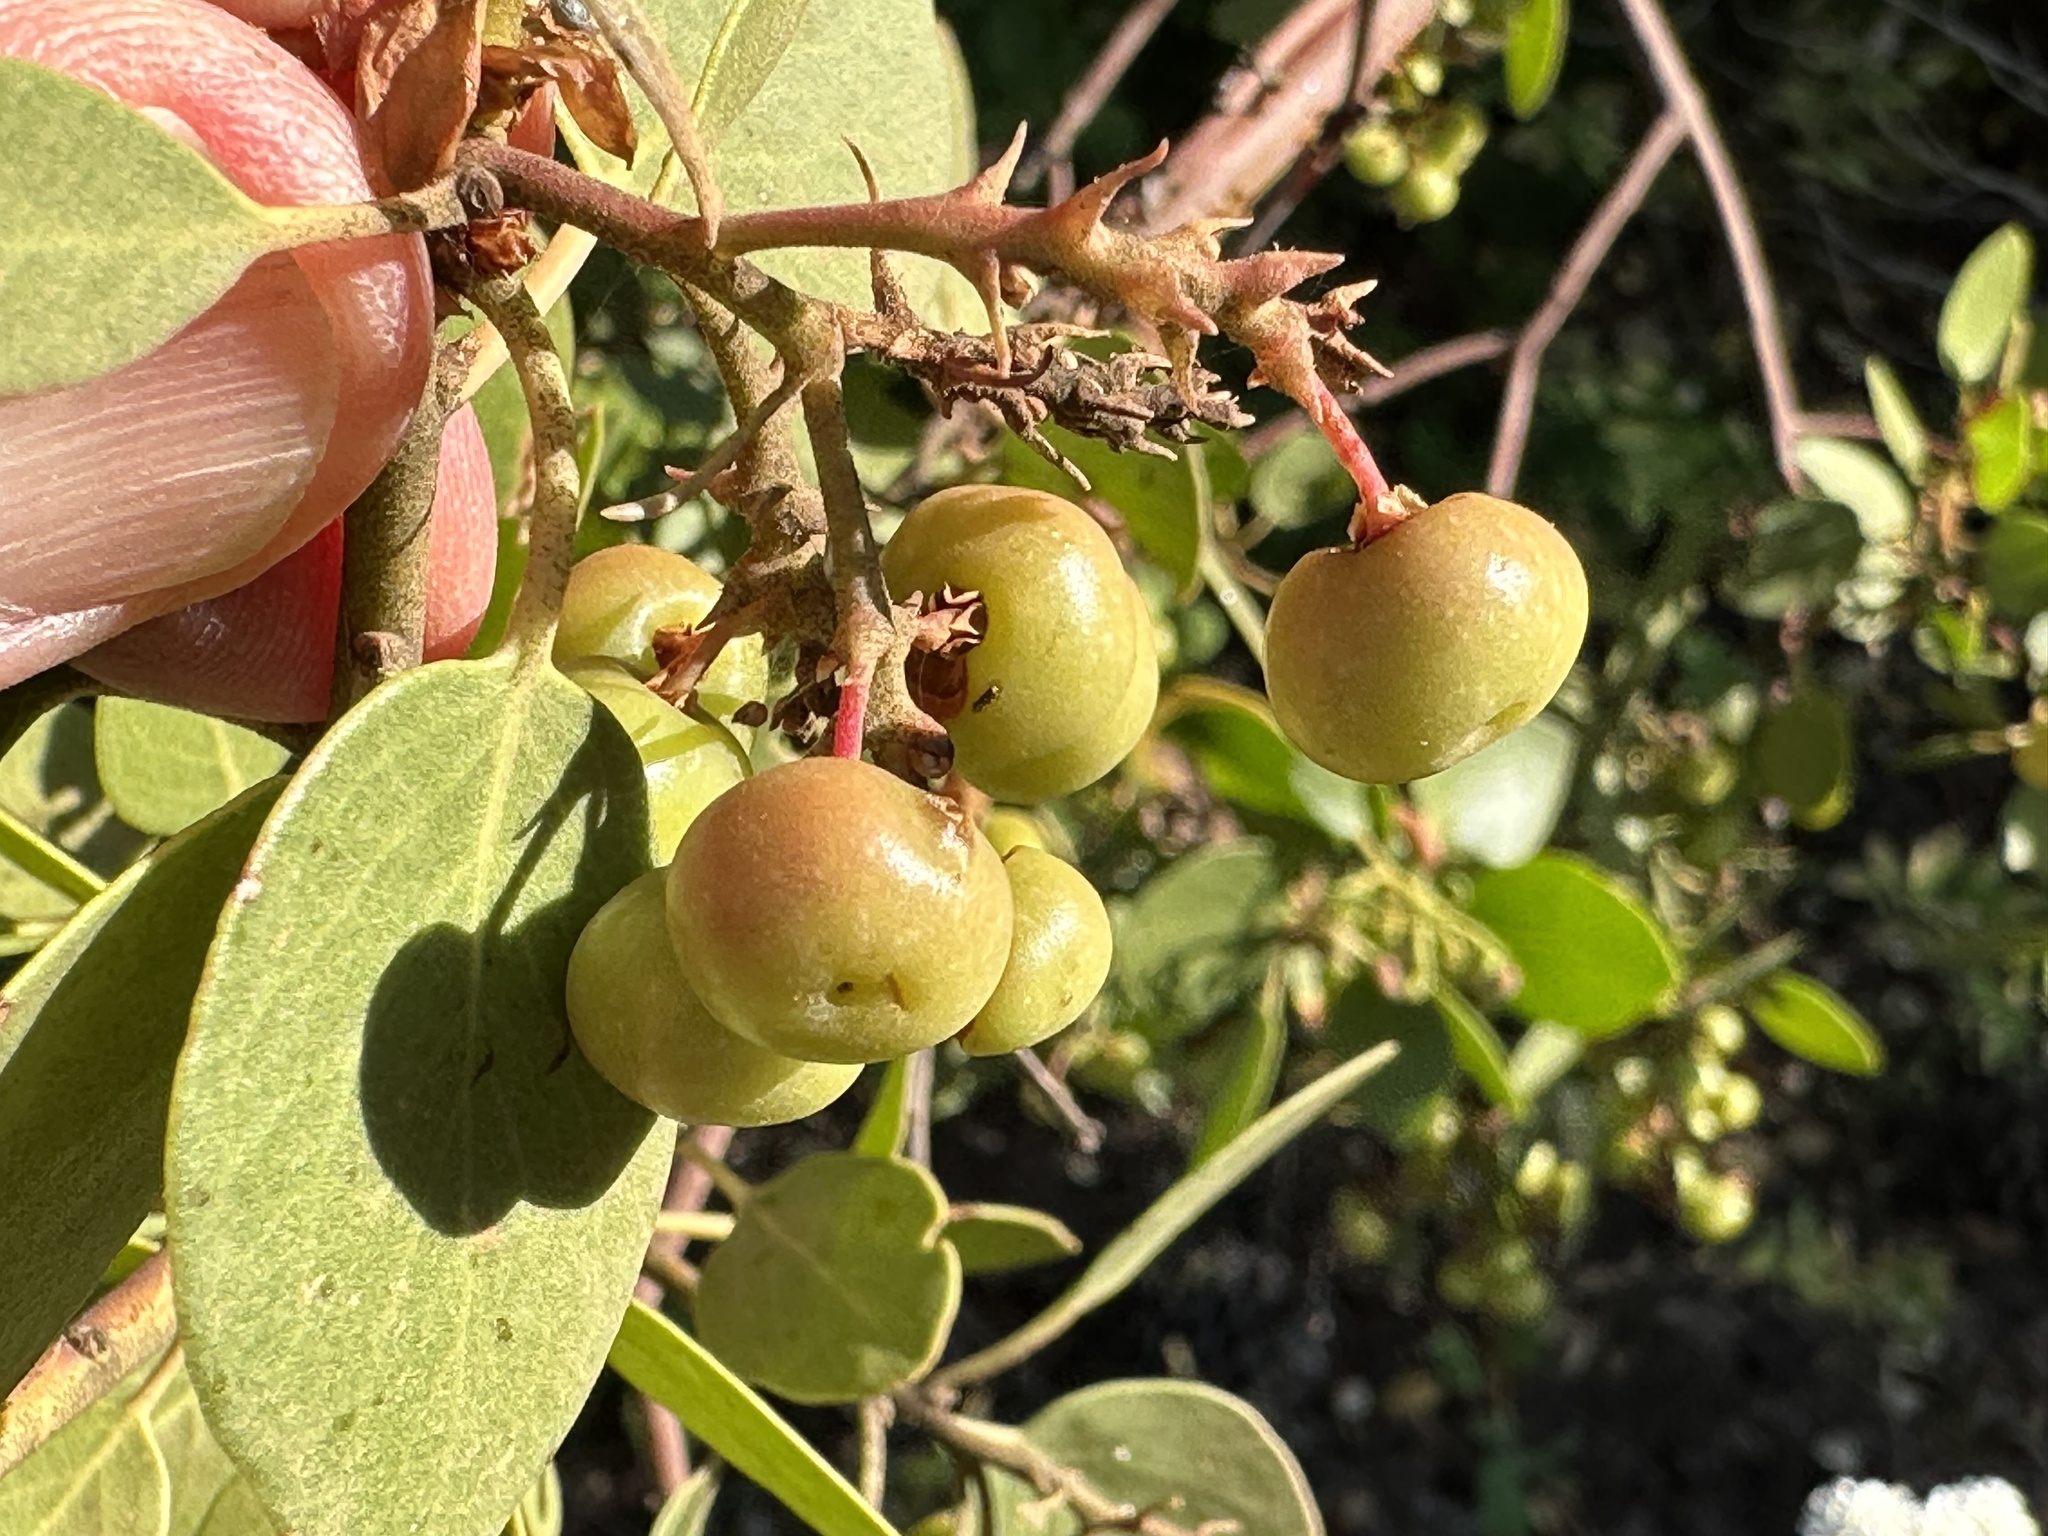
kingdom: Plantae
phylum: Tracheophyta
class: Magnoliopsida
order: Ericales
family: Ericaceae
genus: Arctostaphylos
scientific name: Arctostaphylos patula
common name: Green-leaf manzanita
